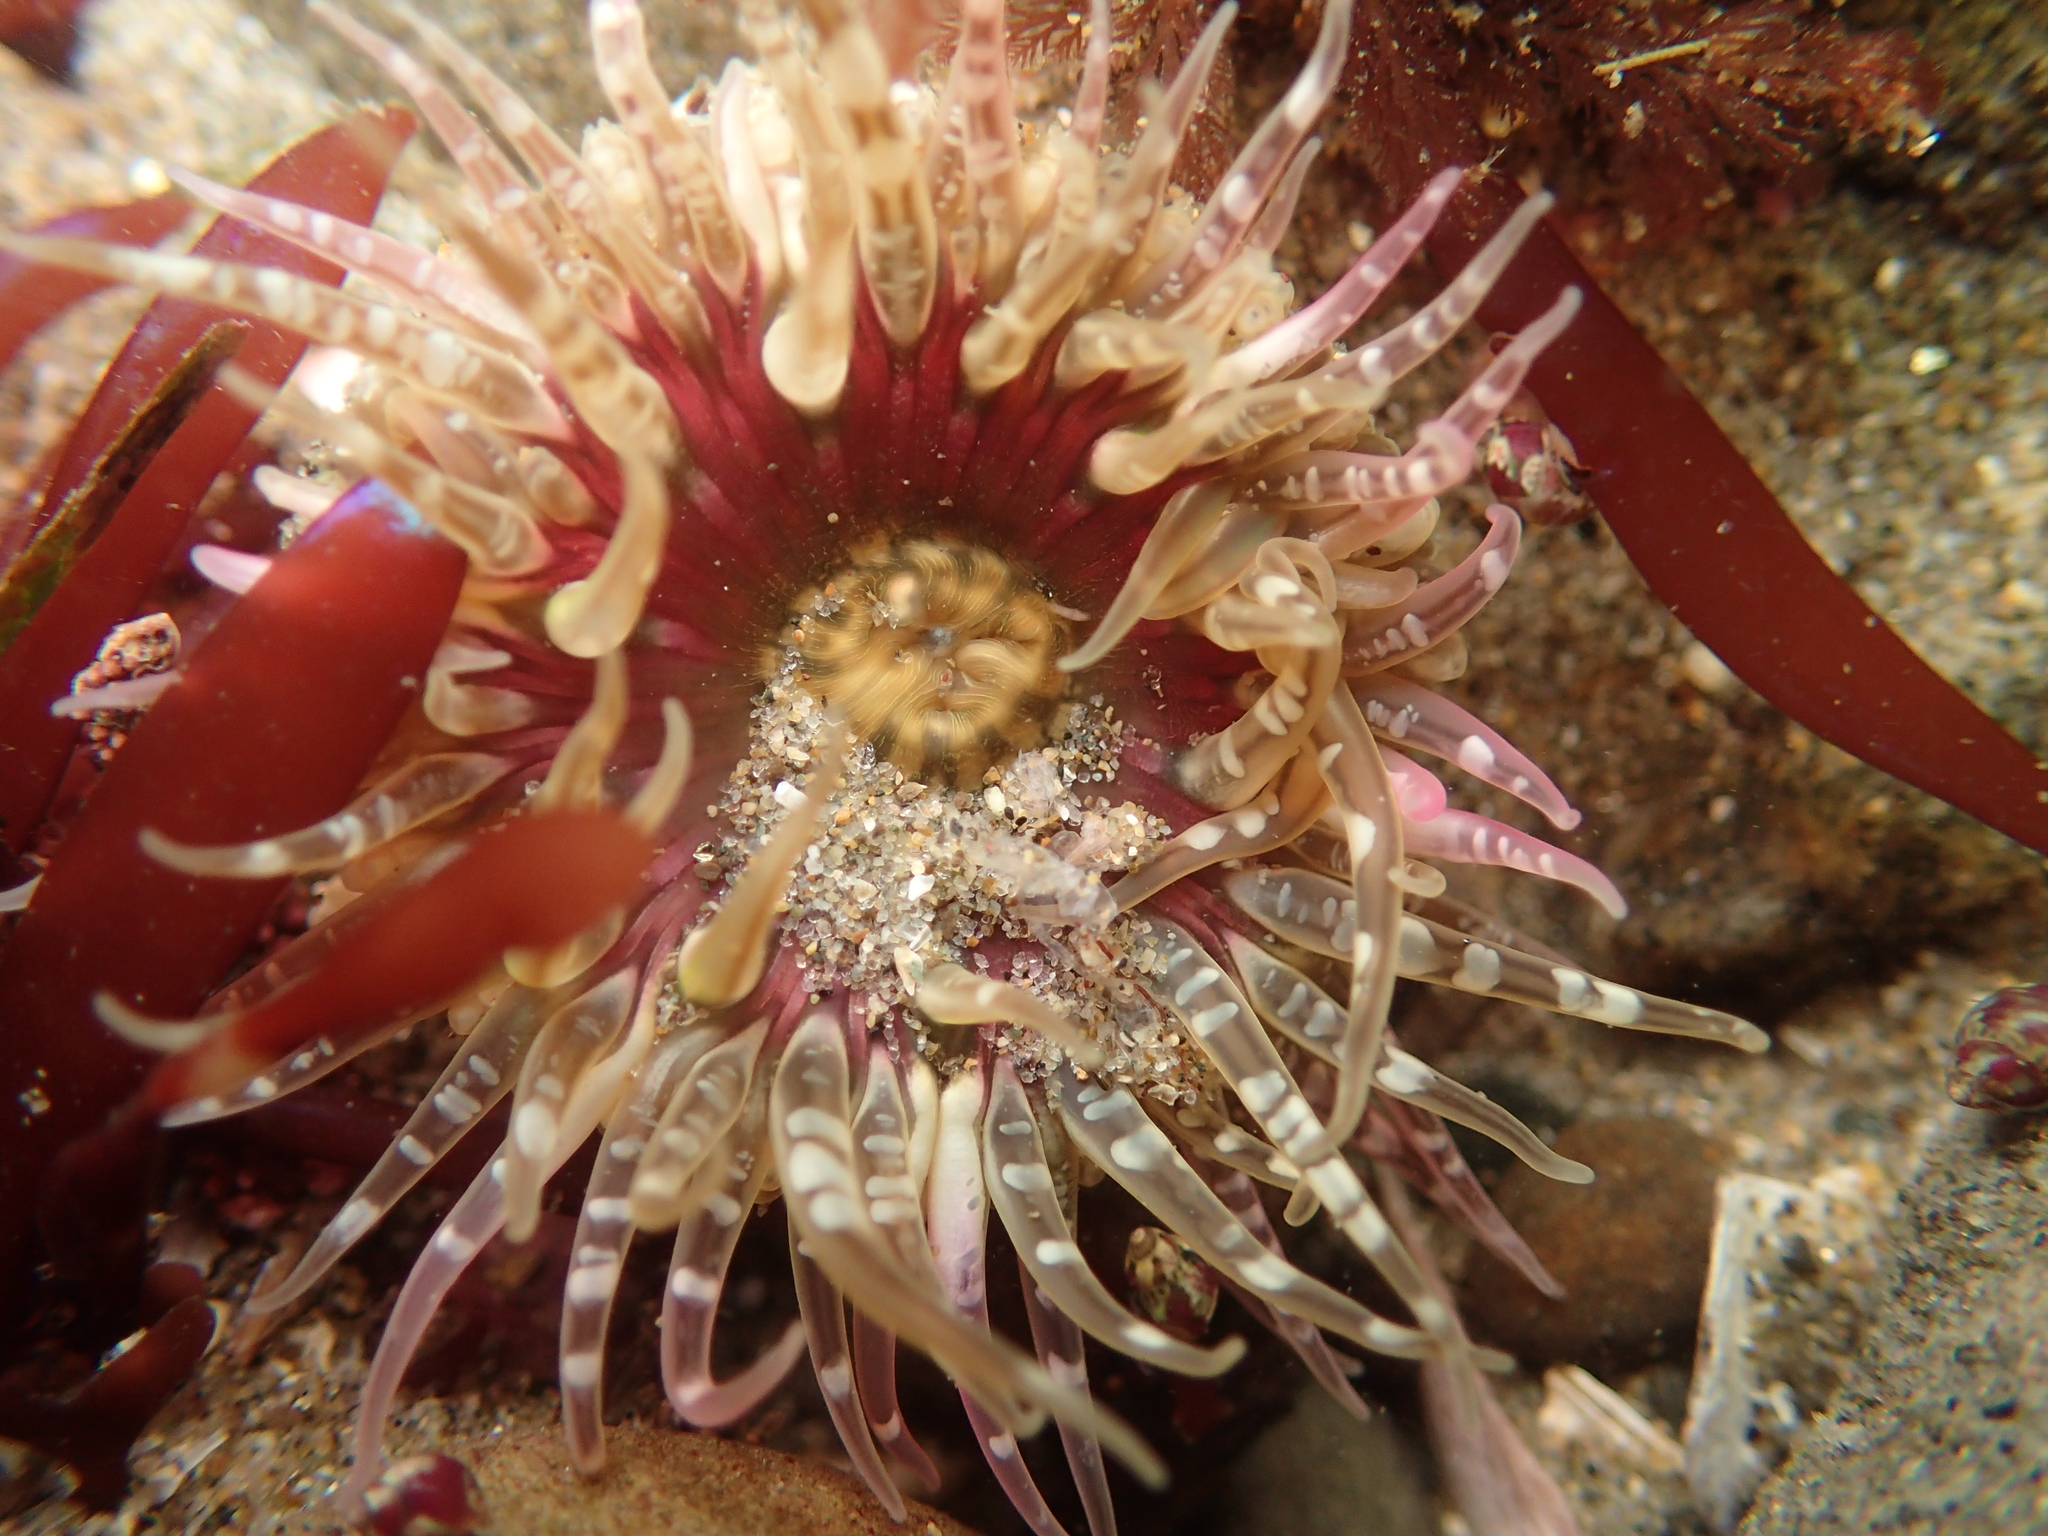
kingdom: Animalia
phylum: Cnidaria
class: Anthozoa
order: Actiniaria
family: Actiniidae
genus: Anthopleura
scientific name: Anthopleura artemisia
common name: Buried sea anemone
